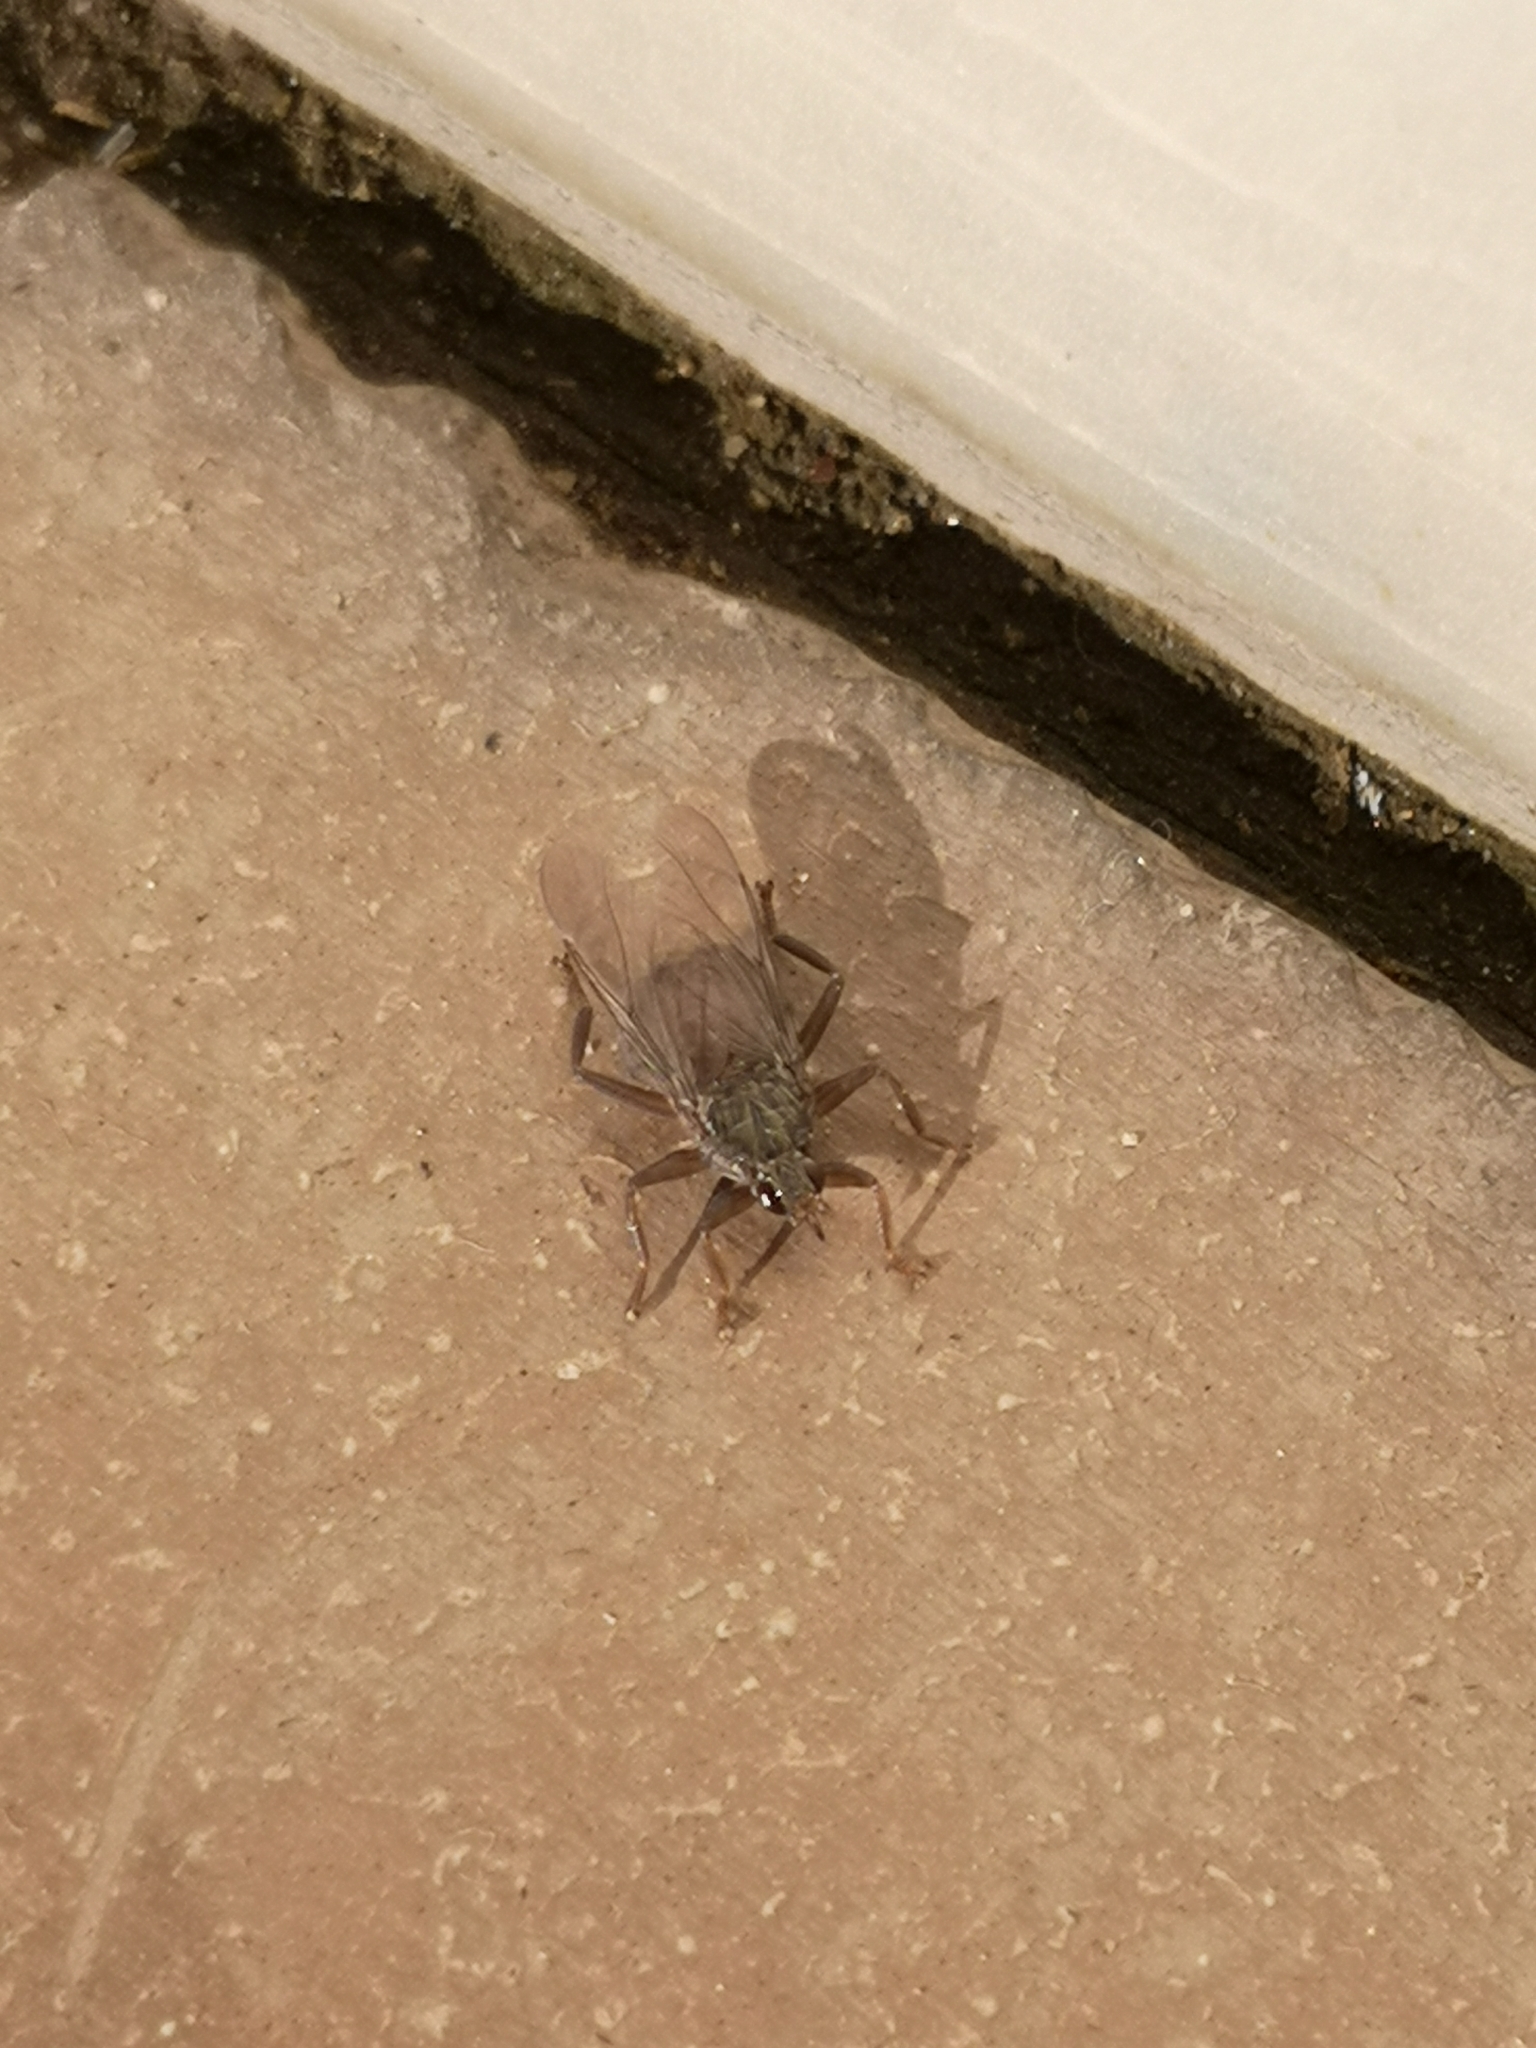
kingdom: Animalia
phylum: Arthropoda
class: Insecta
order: Diptera
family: Hippoboscidae
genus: Pseudolynchia
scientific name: Pseudolynchia canariensis
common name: Louse fly
